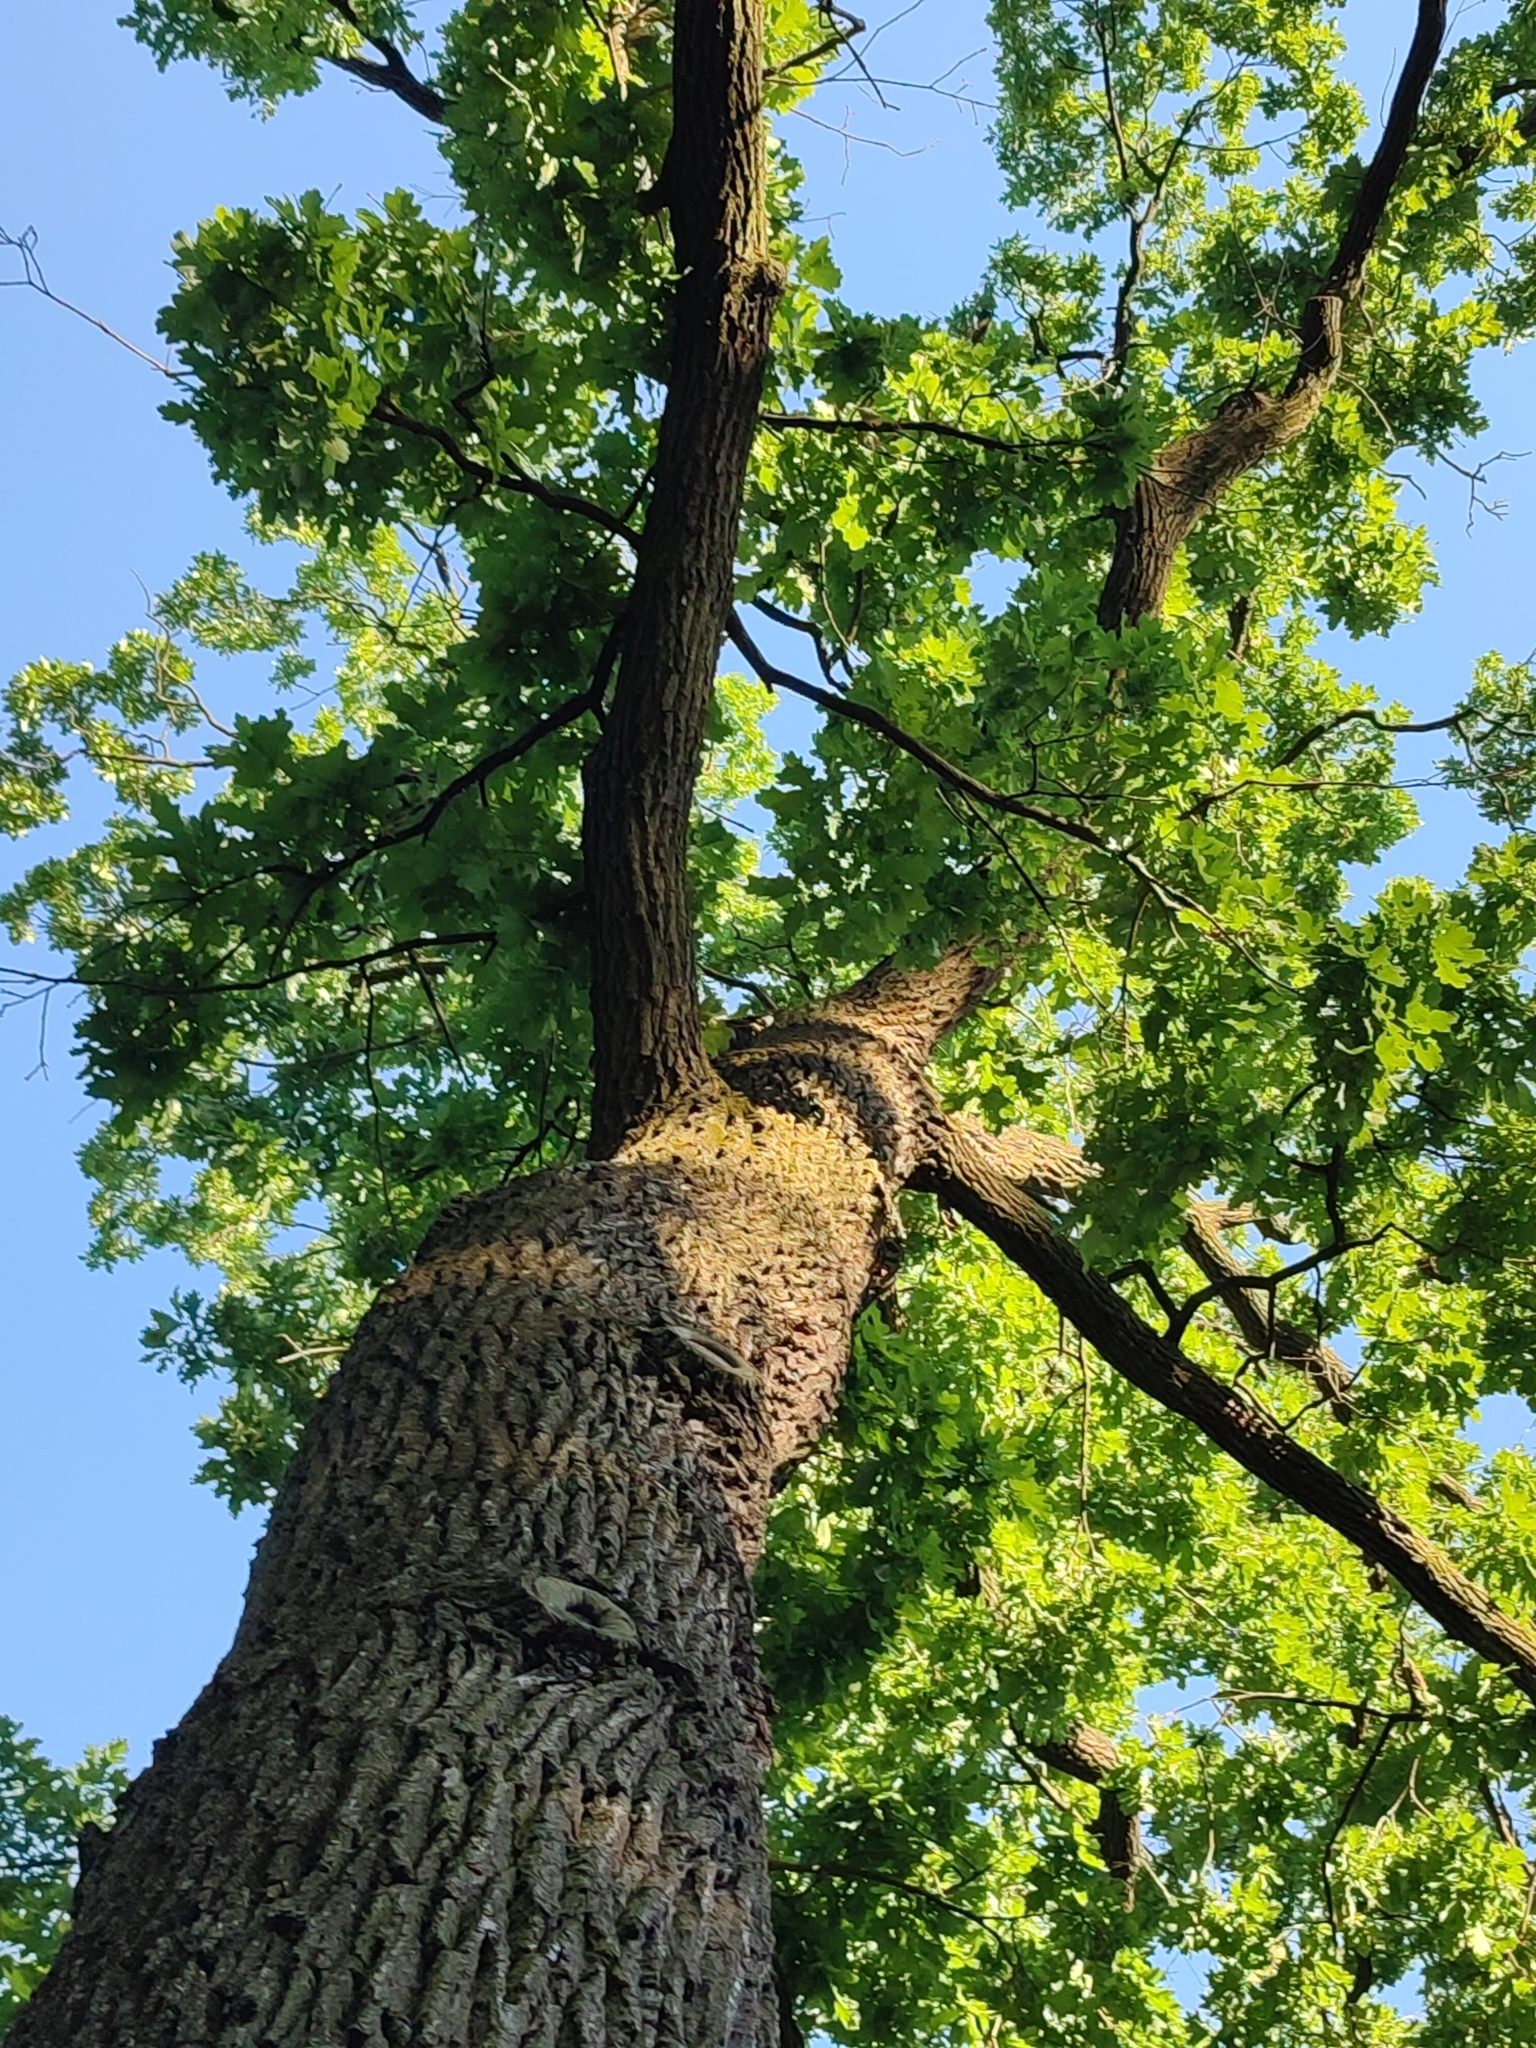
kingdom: Plantae
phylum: Tracheophyta
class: Magnoliopsida
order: Fagales
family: Fagaceae
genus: Quercus
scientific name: Quercus robur
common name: Pedunculate oak
